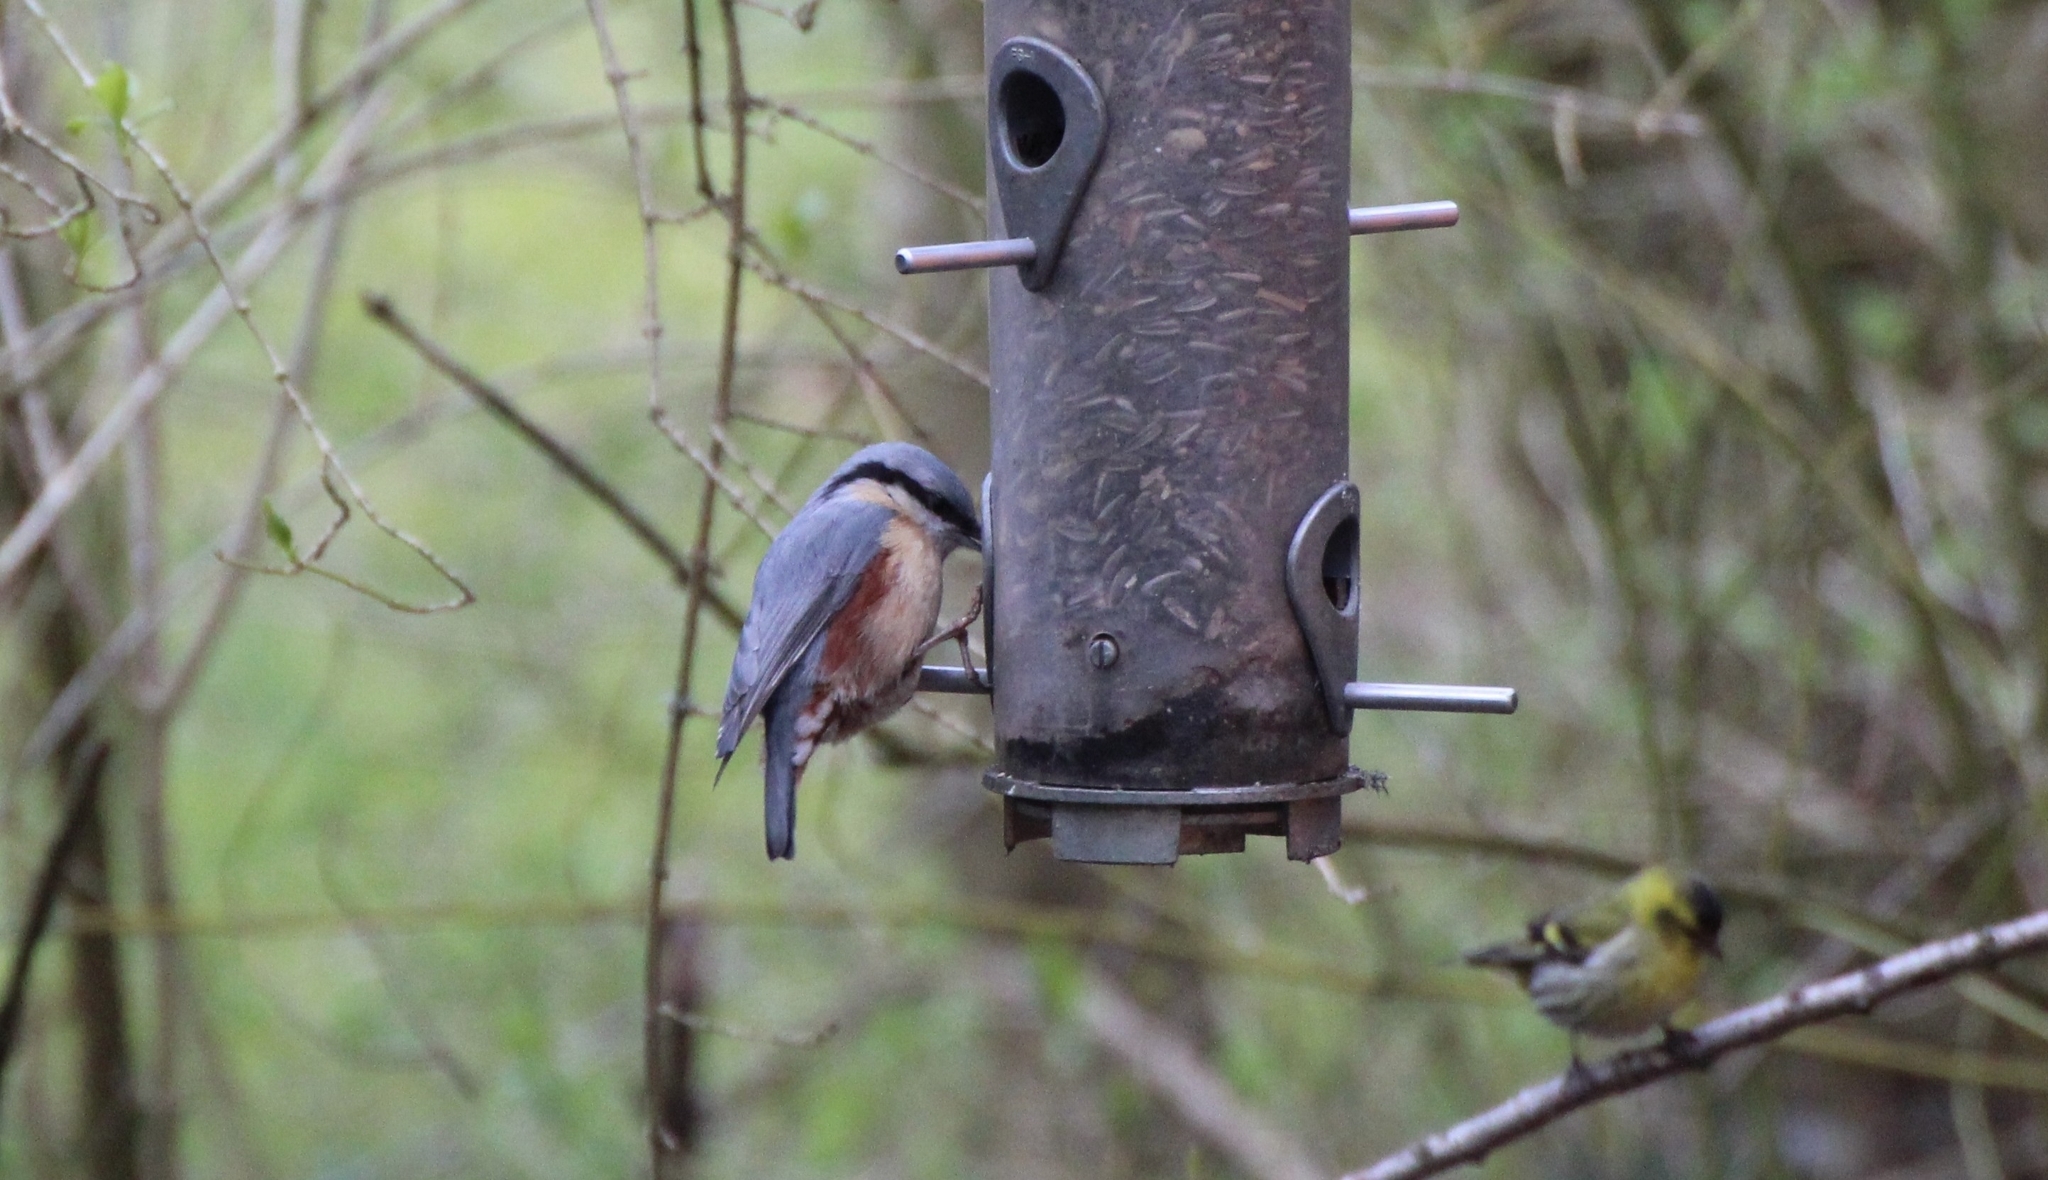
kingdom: Animalia
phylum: Chordata
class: Aves
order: Passeriformes
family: Sittidae
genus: Sitta
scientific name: Sitta europaea
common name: Eurasian nuthatch
